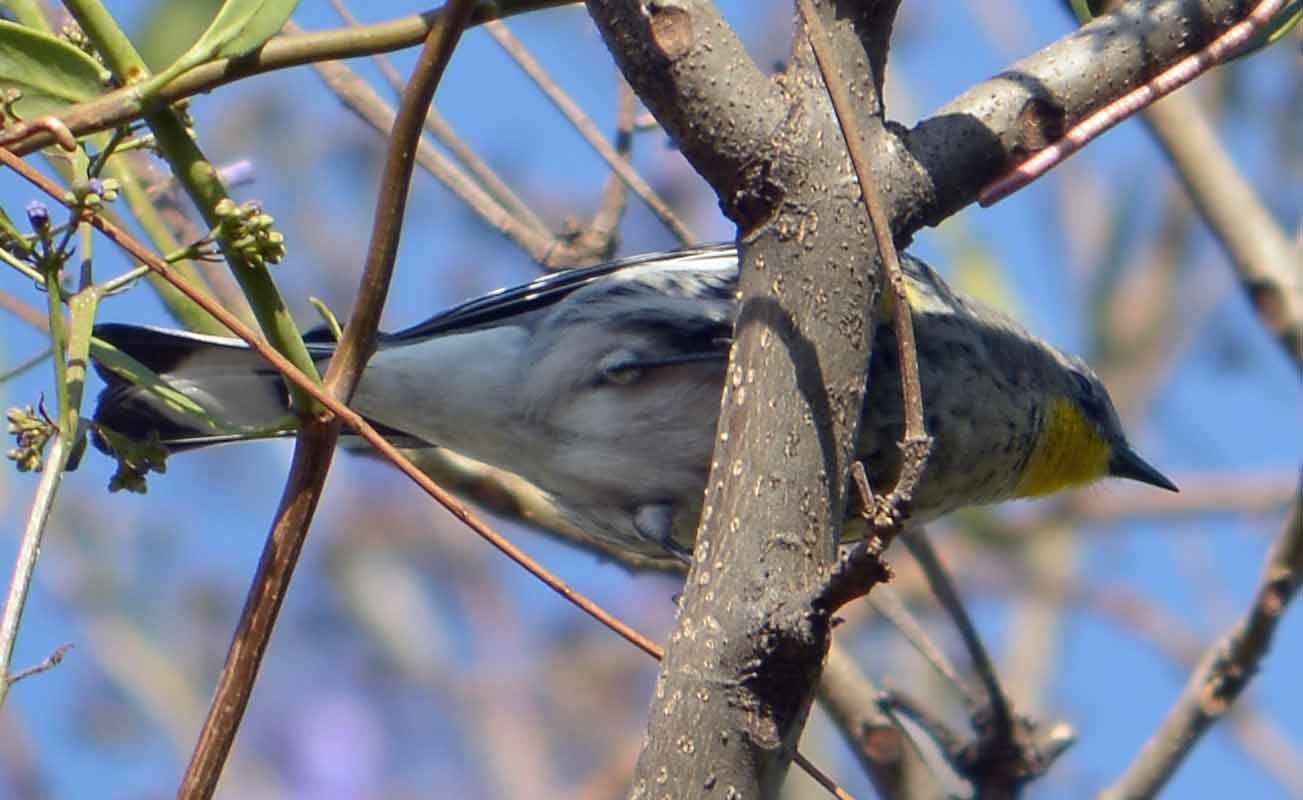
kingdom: Animalia
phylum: Chordata
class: Aves
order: Passeriformes
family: Parulidae
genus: Setophaga
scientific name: Setophaga coronata
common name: Myrtle warbler
